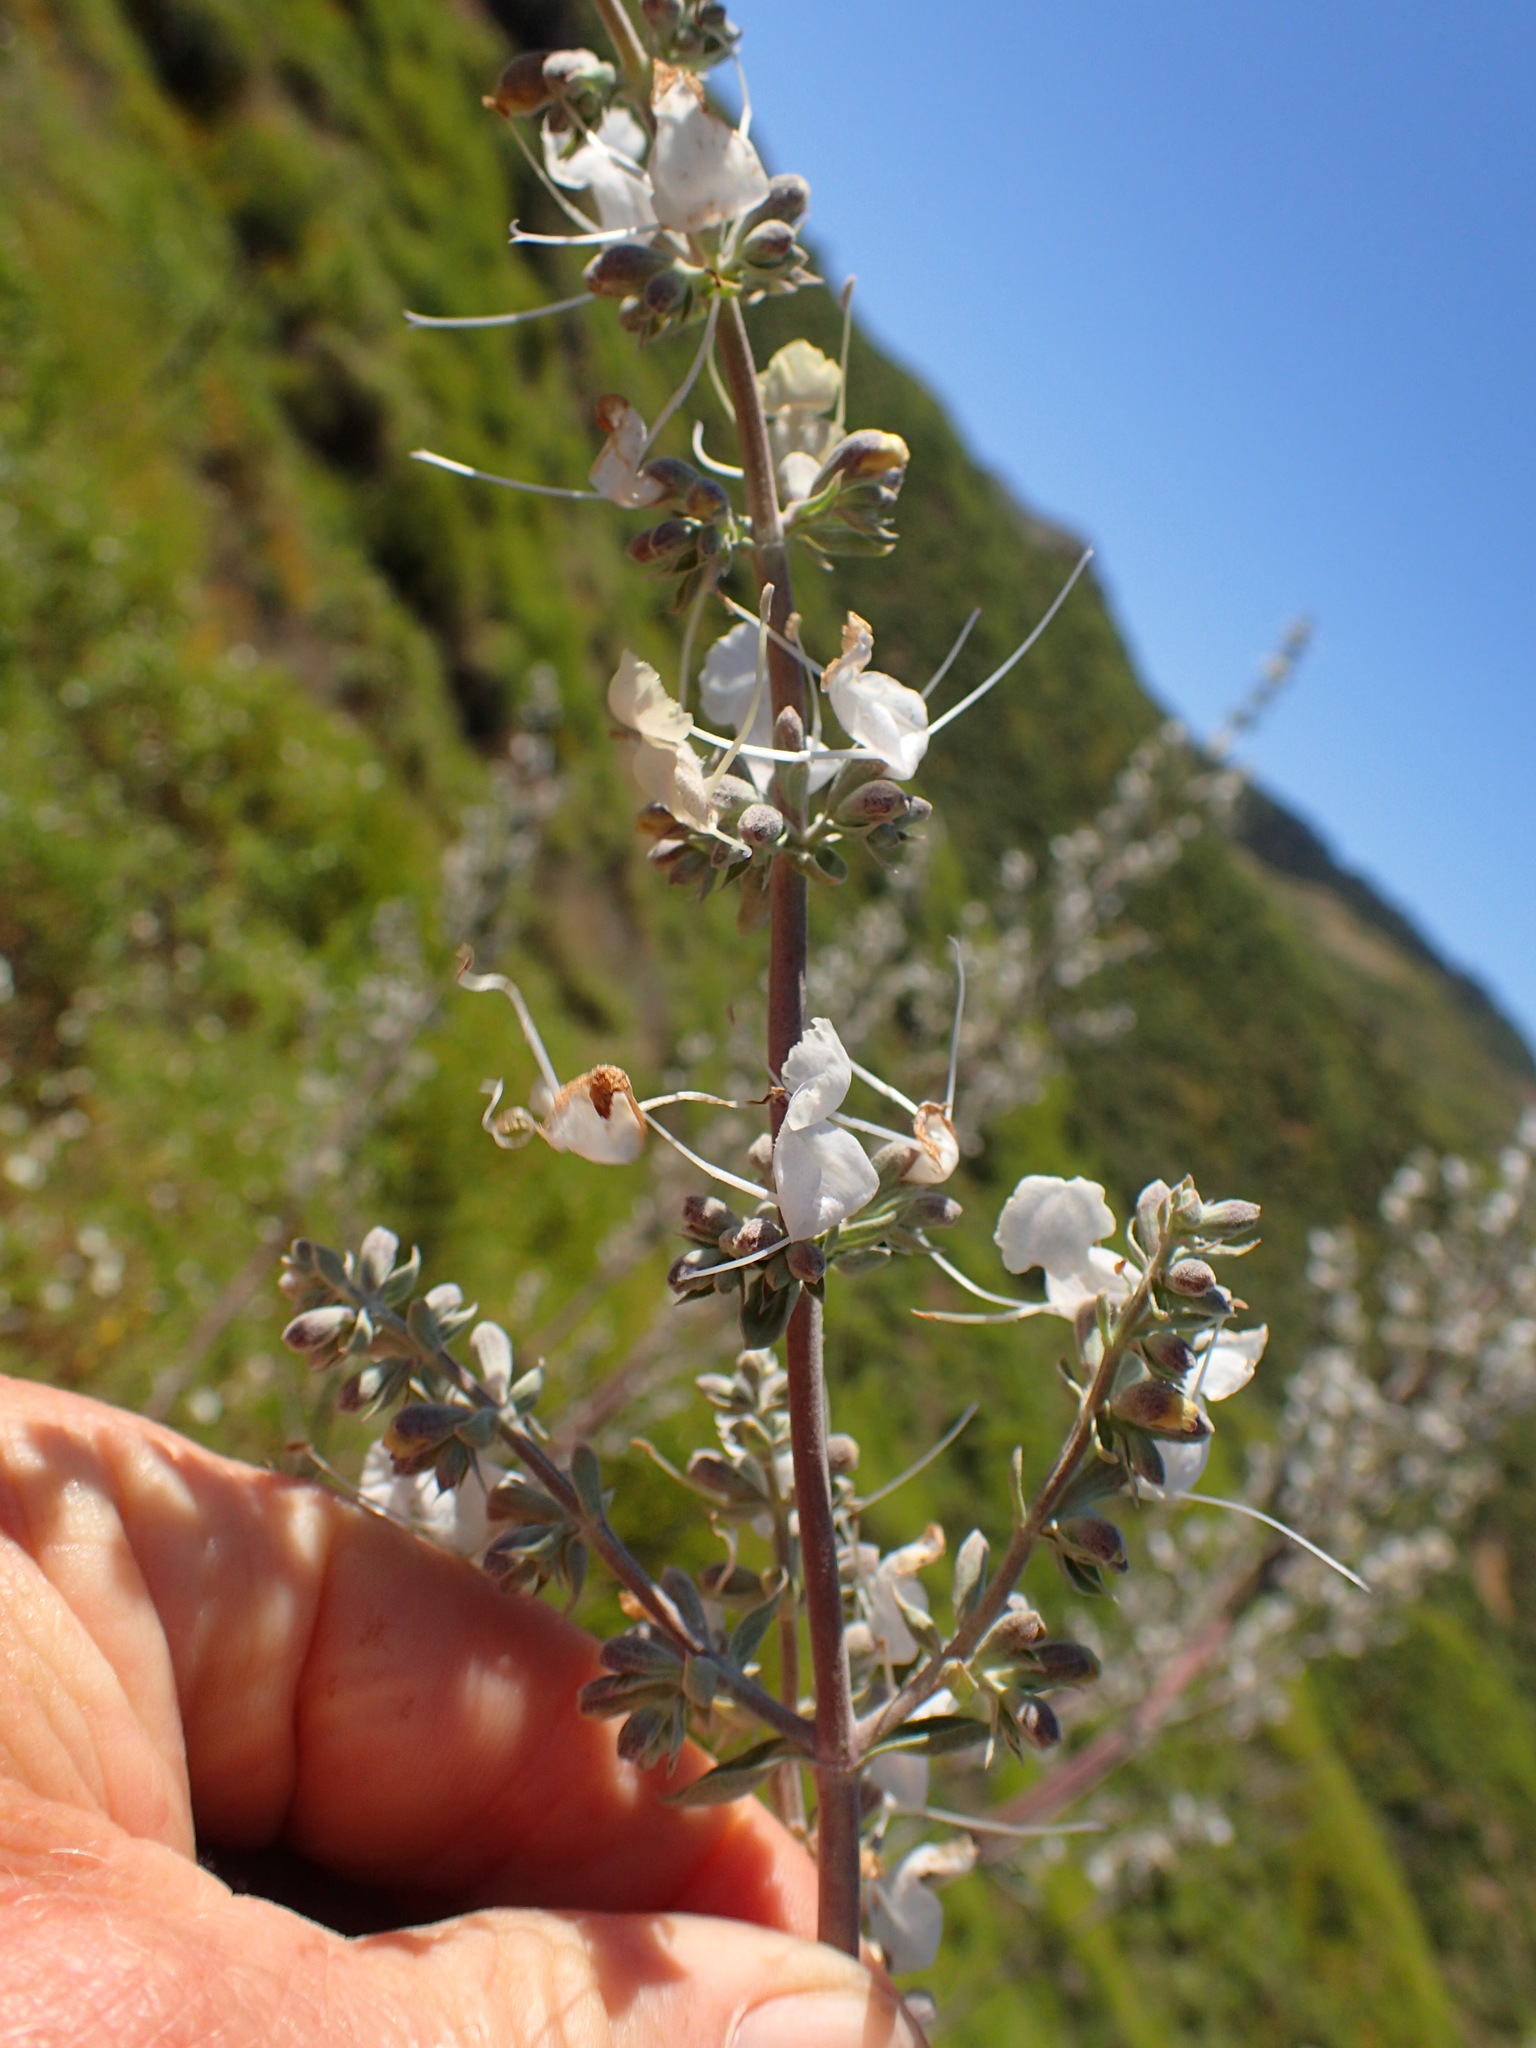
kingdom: Plantae
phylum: Tracheophyta
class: Magnoliopsida
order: Lamiales
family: Lamiaceae
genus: Salvia
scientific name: Salvia apiana
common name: White sage
